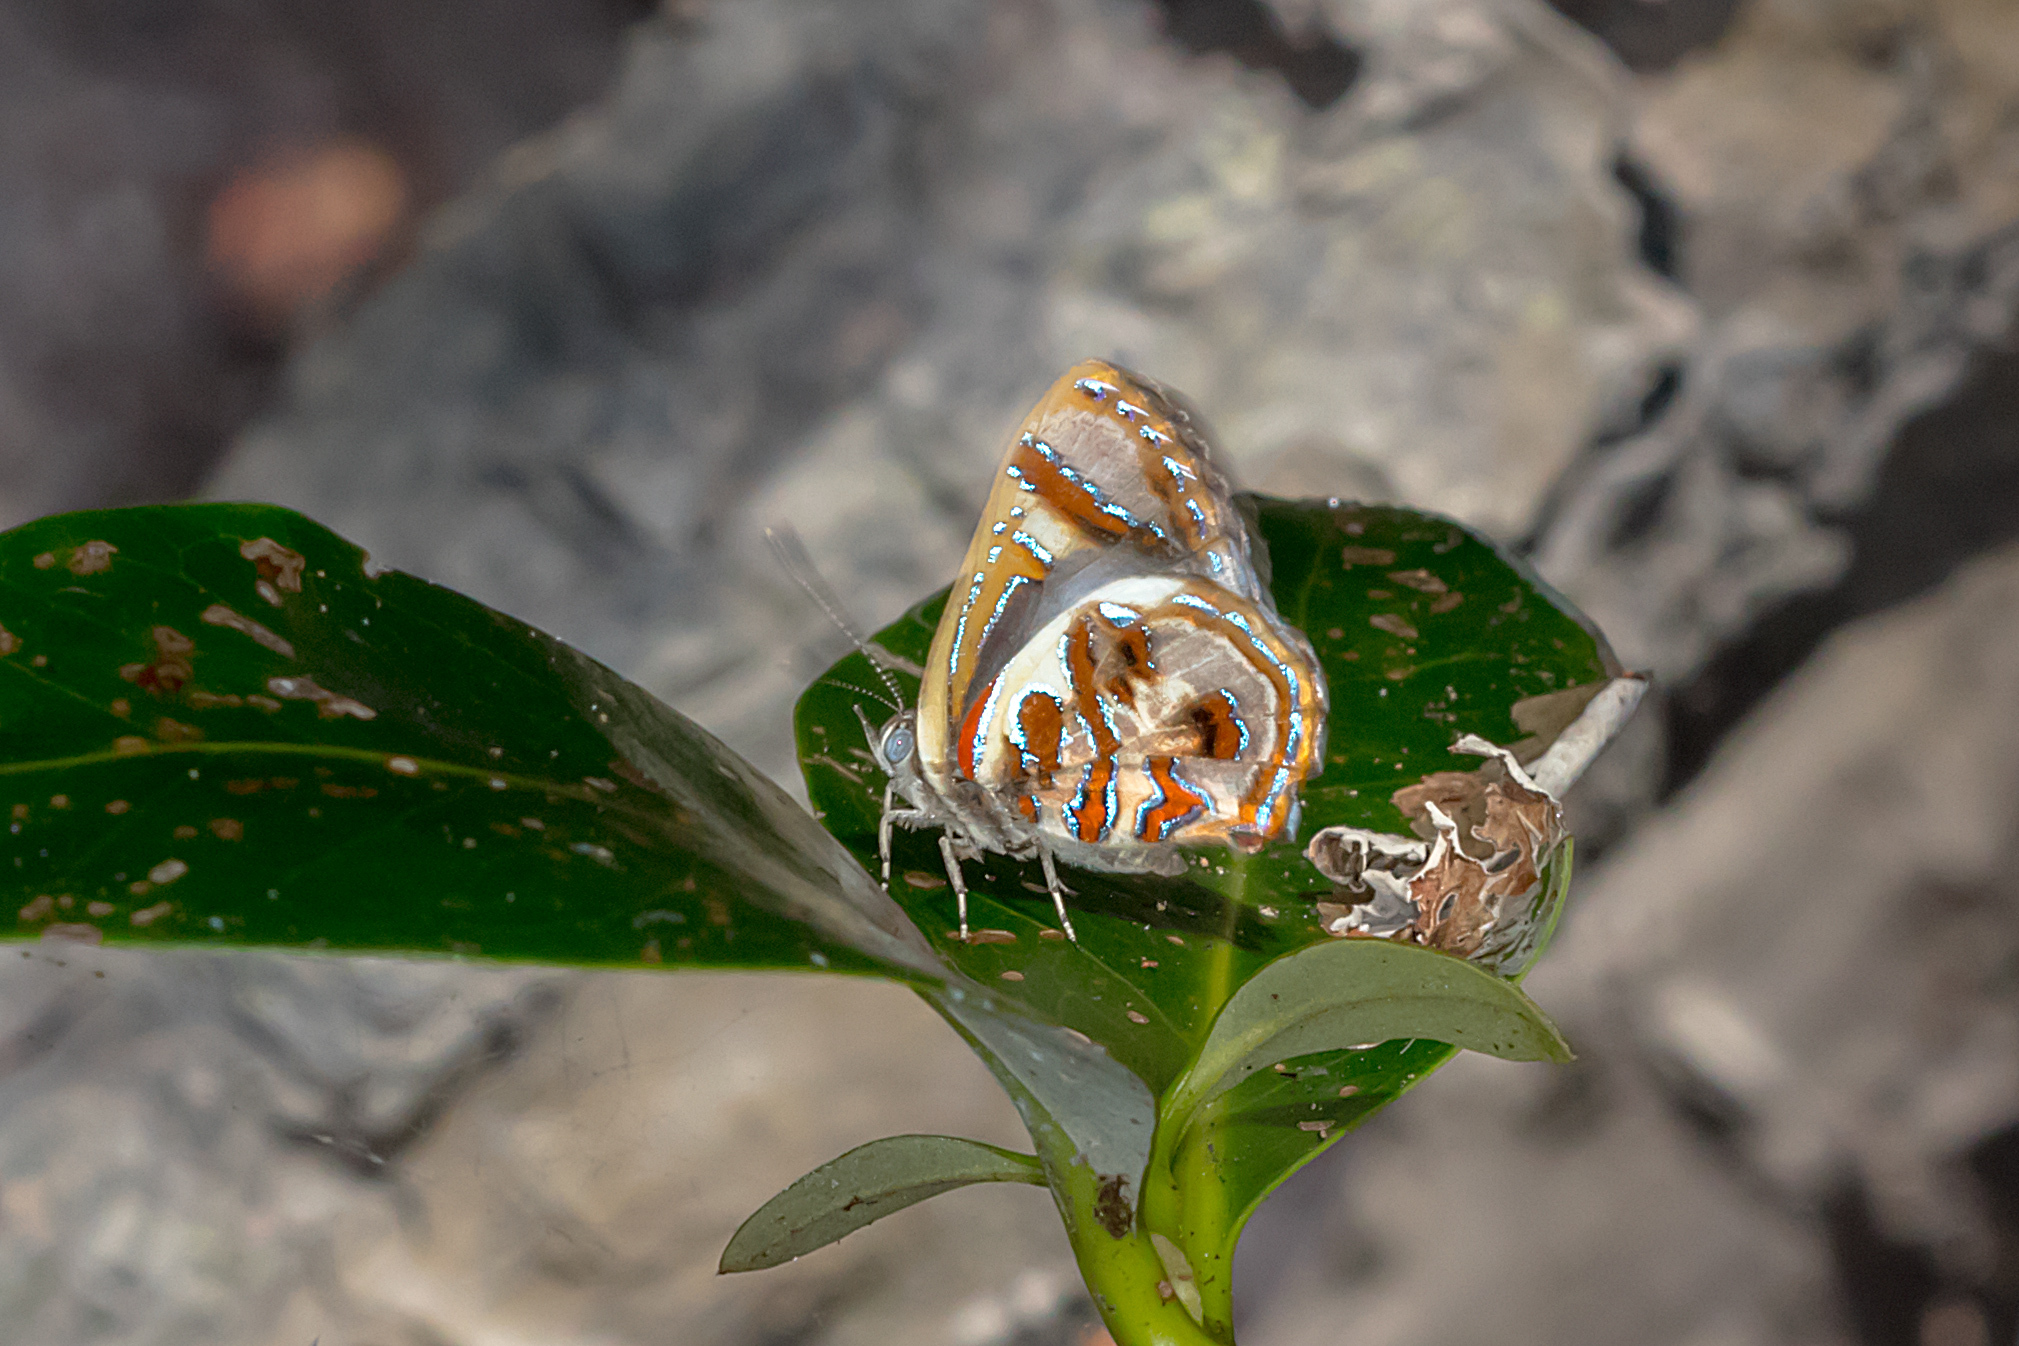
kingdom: Animalia
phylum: Arthropoda
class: Insecta
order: Lepidoptera
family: Lycaenidae
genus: Hypochrysops
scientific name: Hypochrysops narcissus
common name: Narcissus jewel
